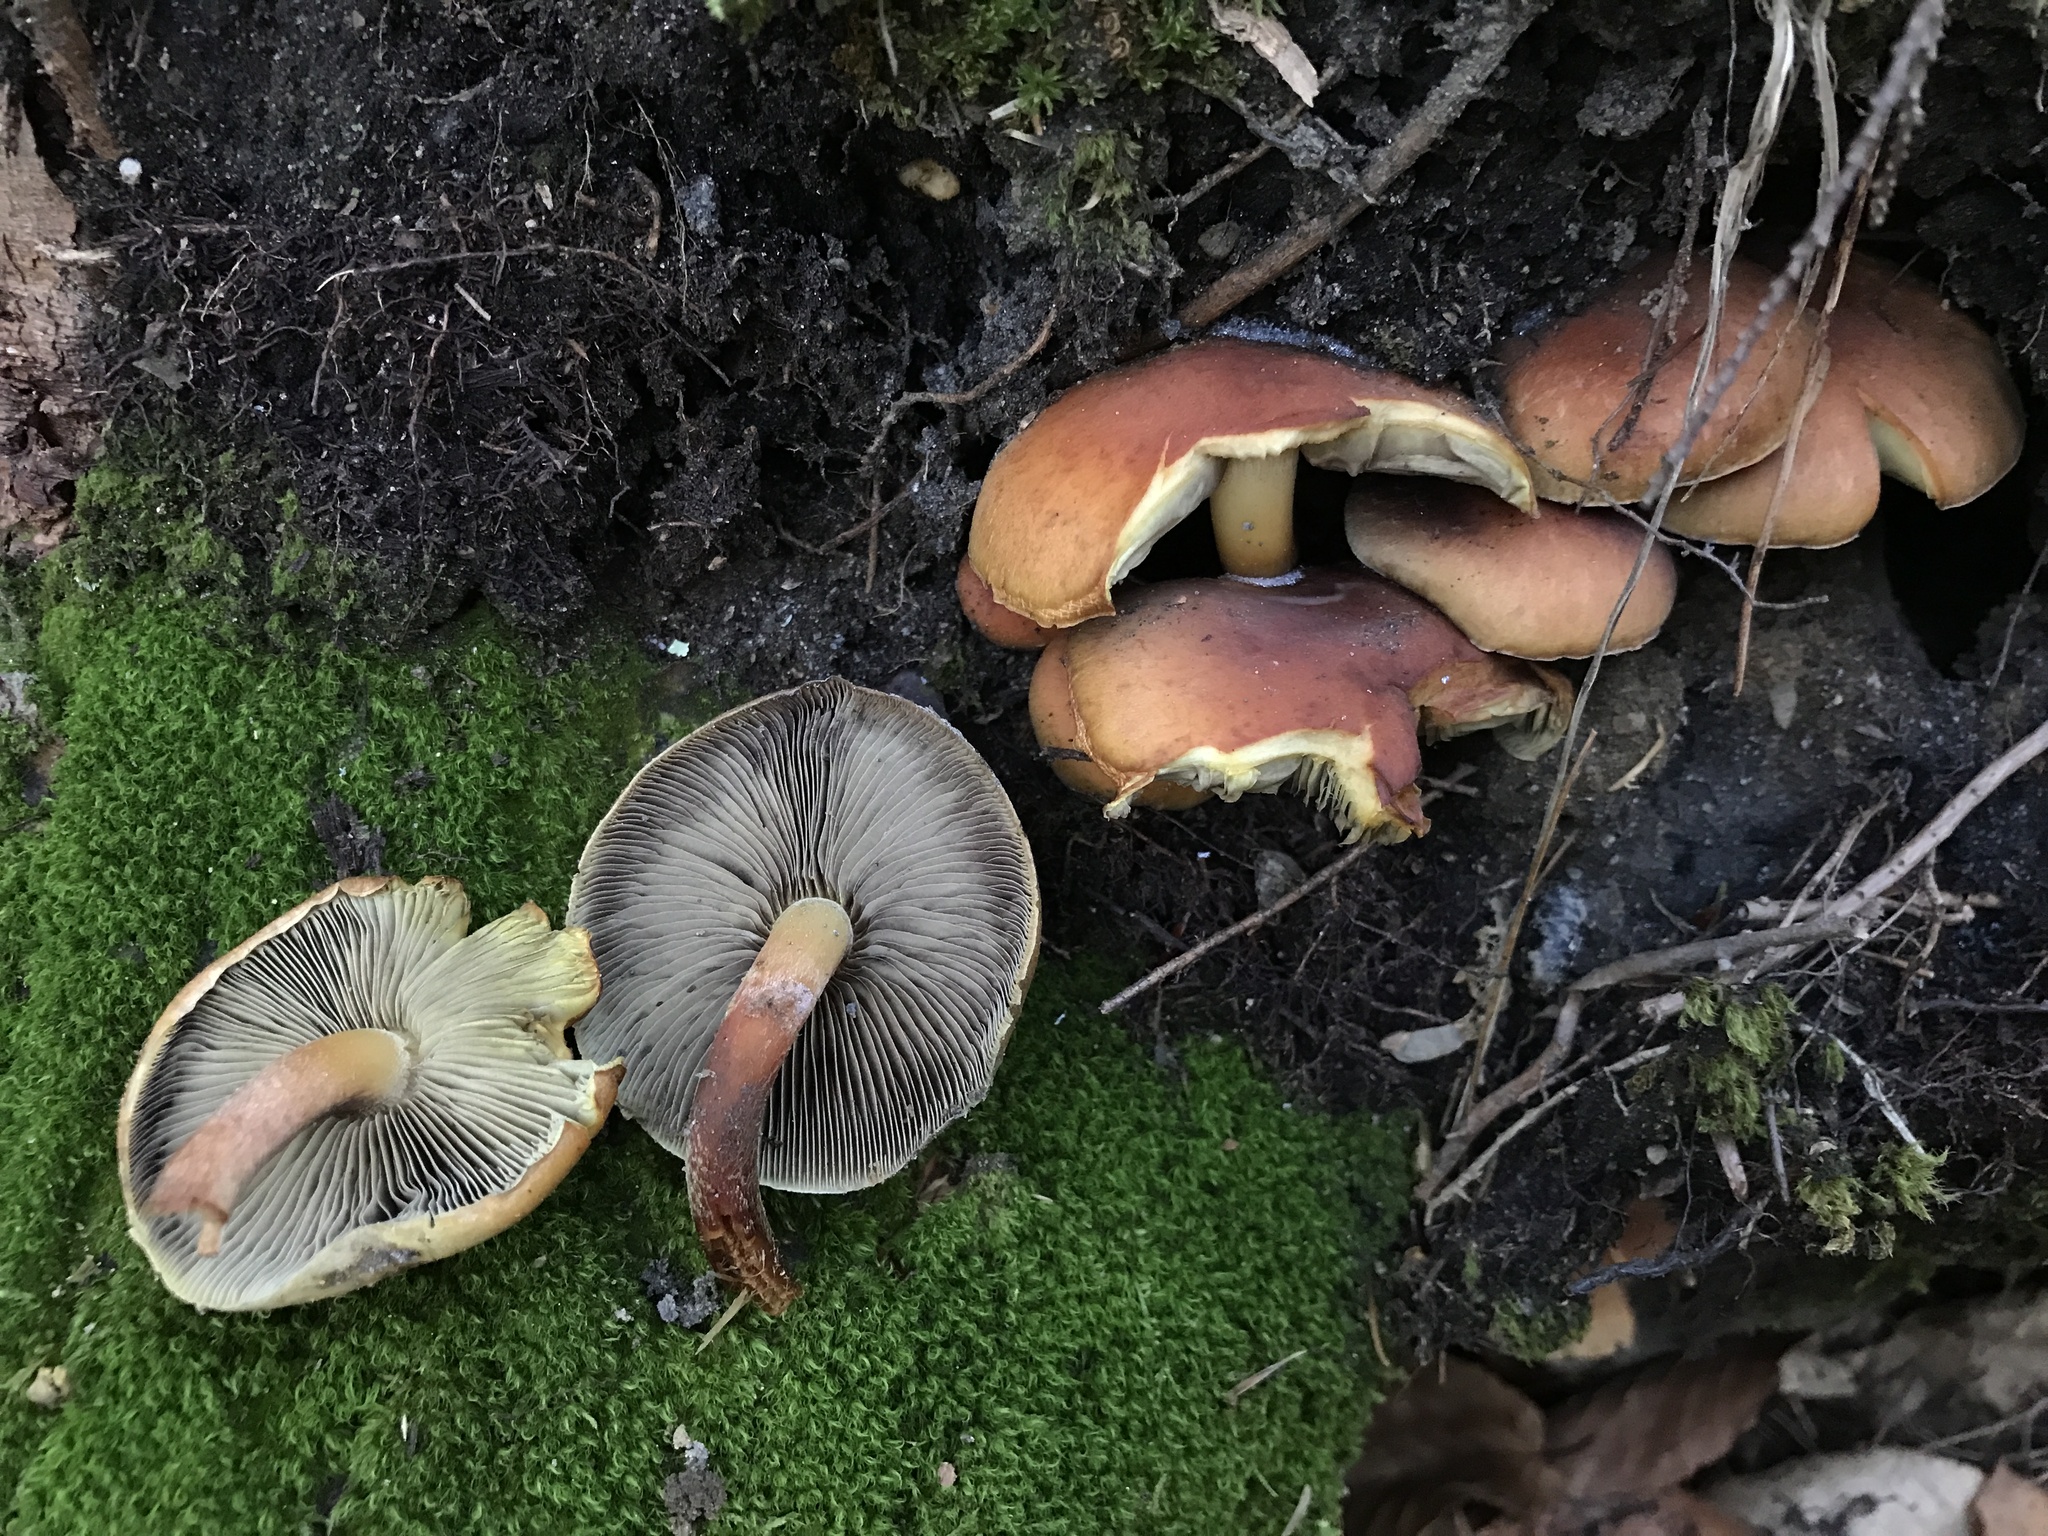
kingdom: Fungi
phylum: Basidiomycota
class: Agaricomycetes
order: Agaricales
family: Strophariaceae
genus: Hypholoma
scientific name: Hypholoma lateritium
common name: Brick caps
